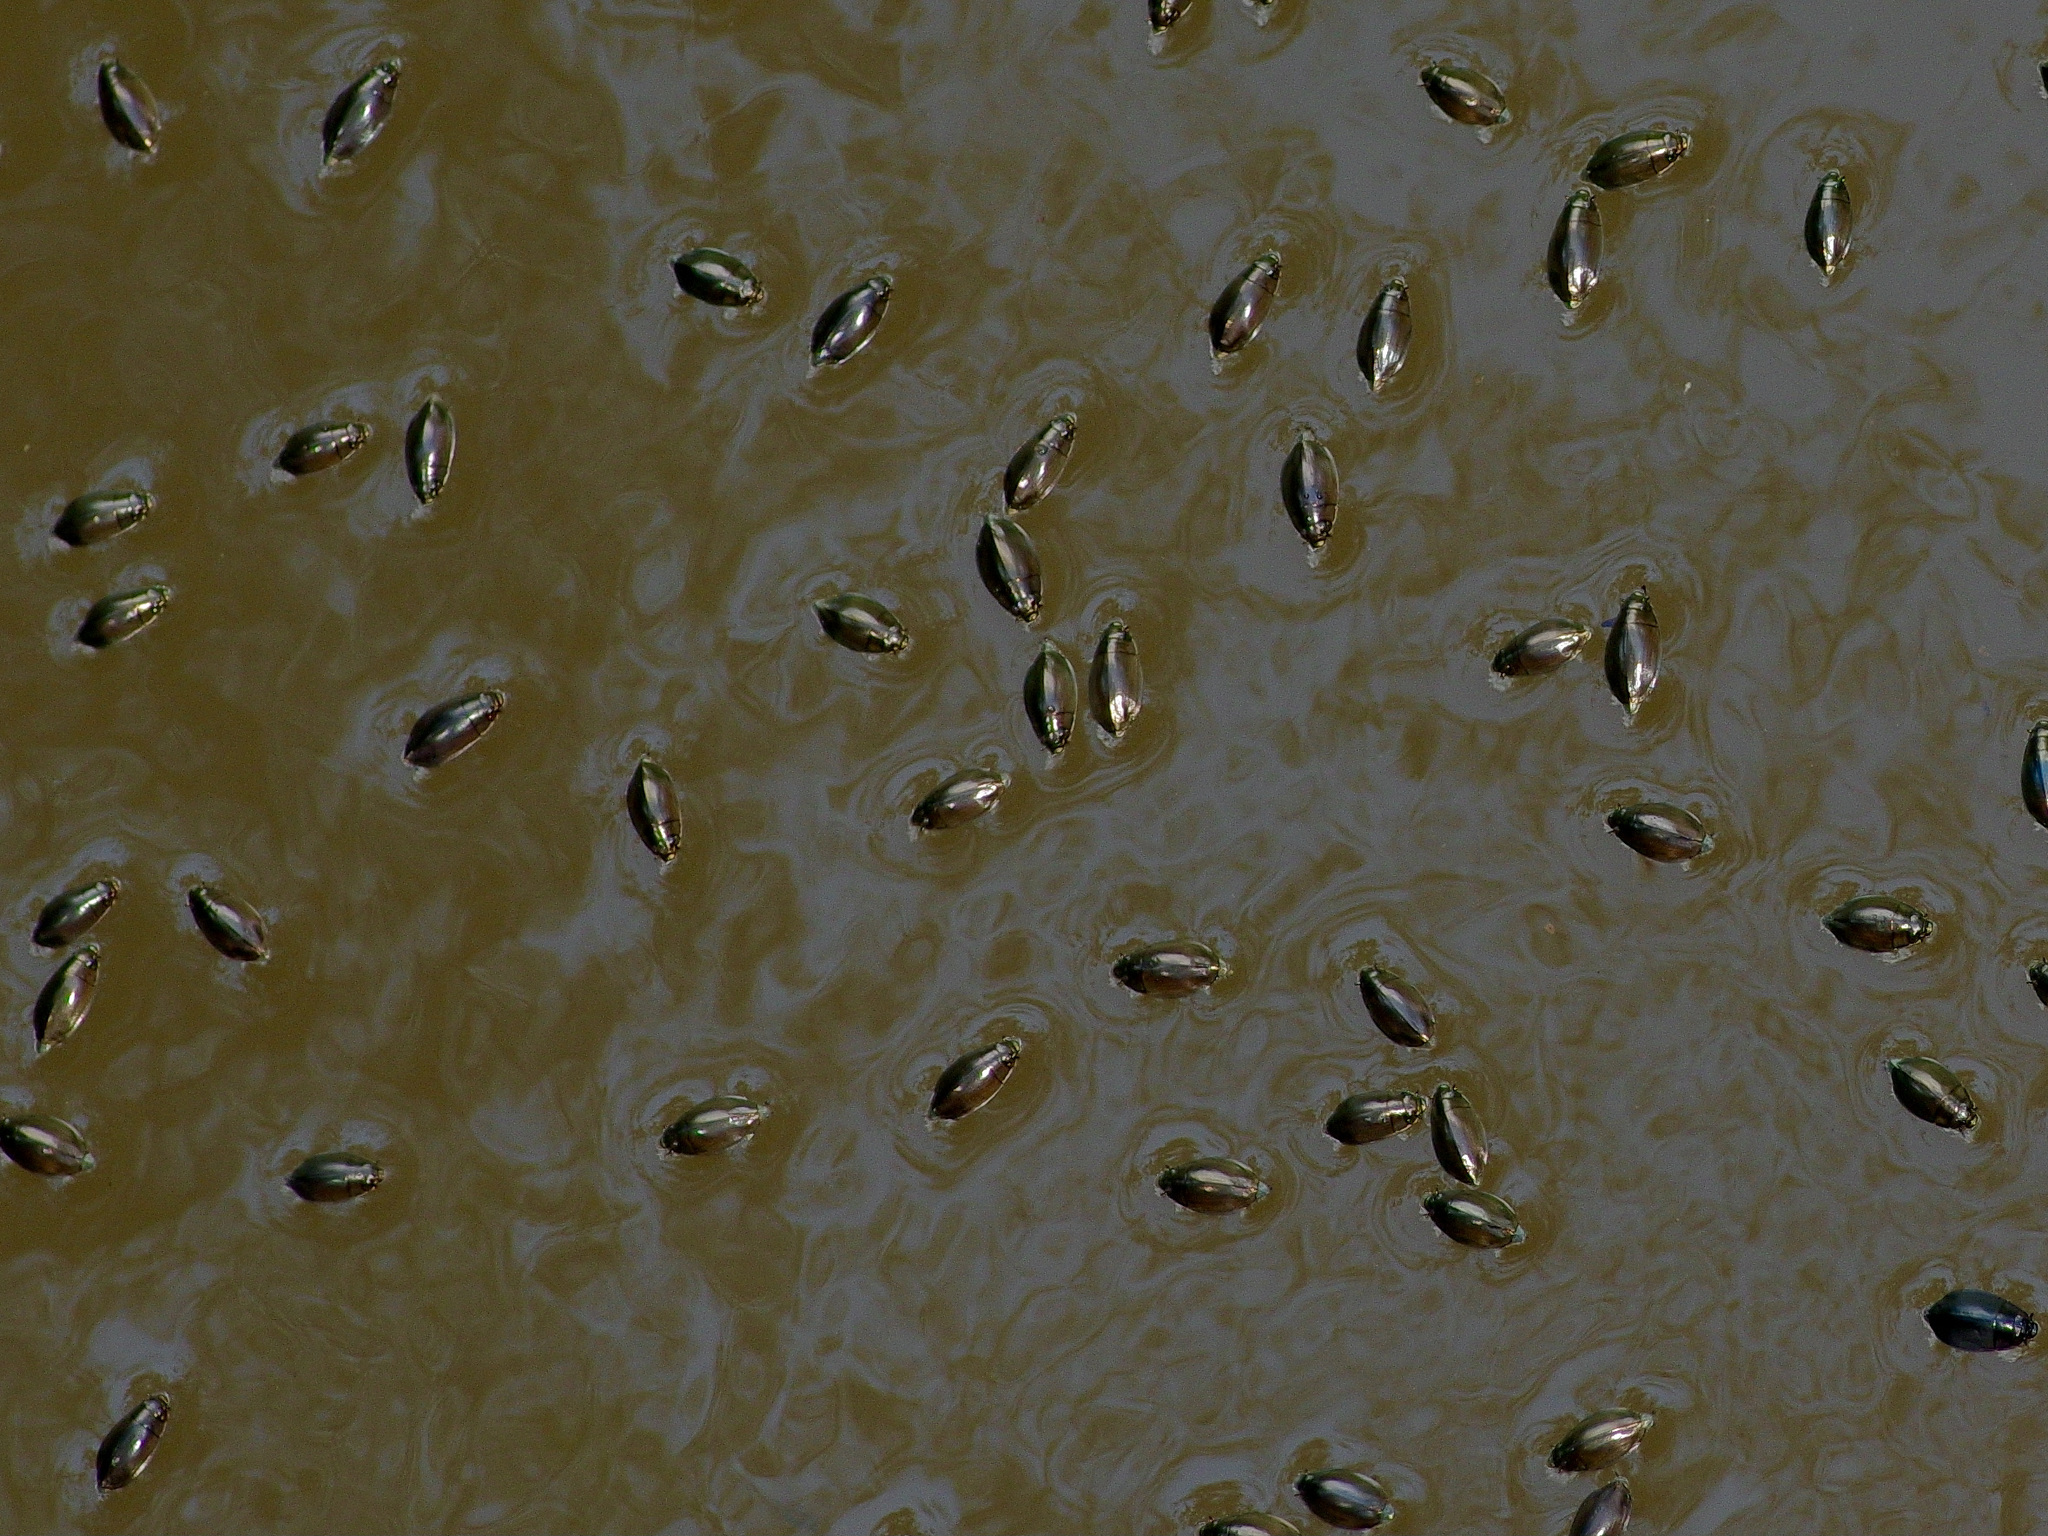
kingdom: Animalia
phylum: Arthropoda
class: Insecta
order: Coleoptera
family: Gyrinidae
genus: Dineutus
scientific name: Dineutus
